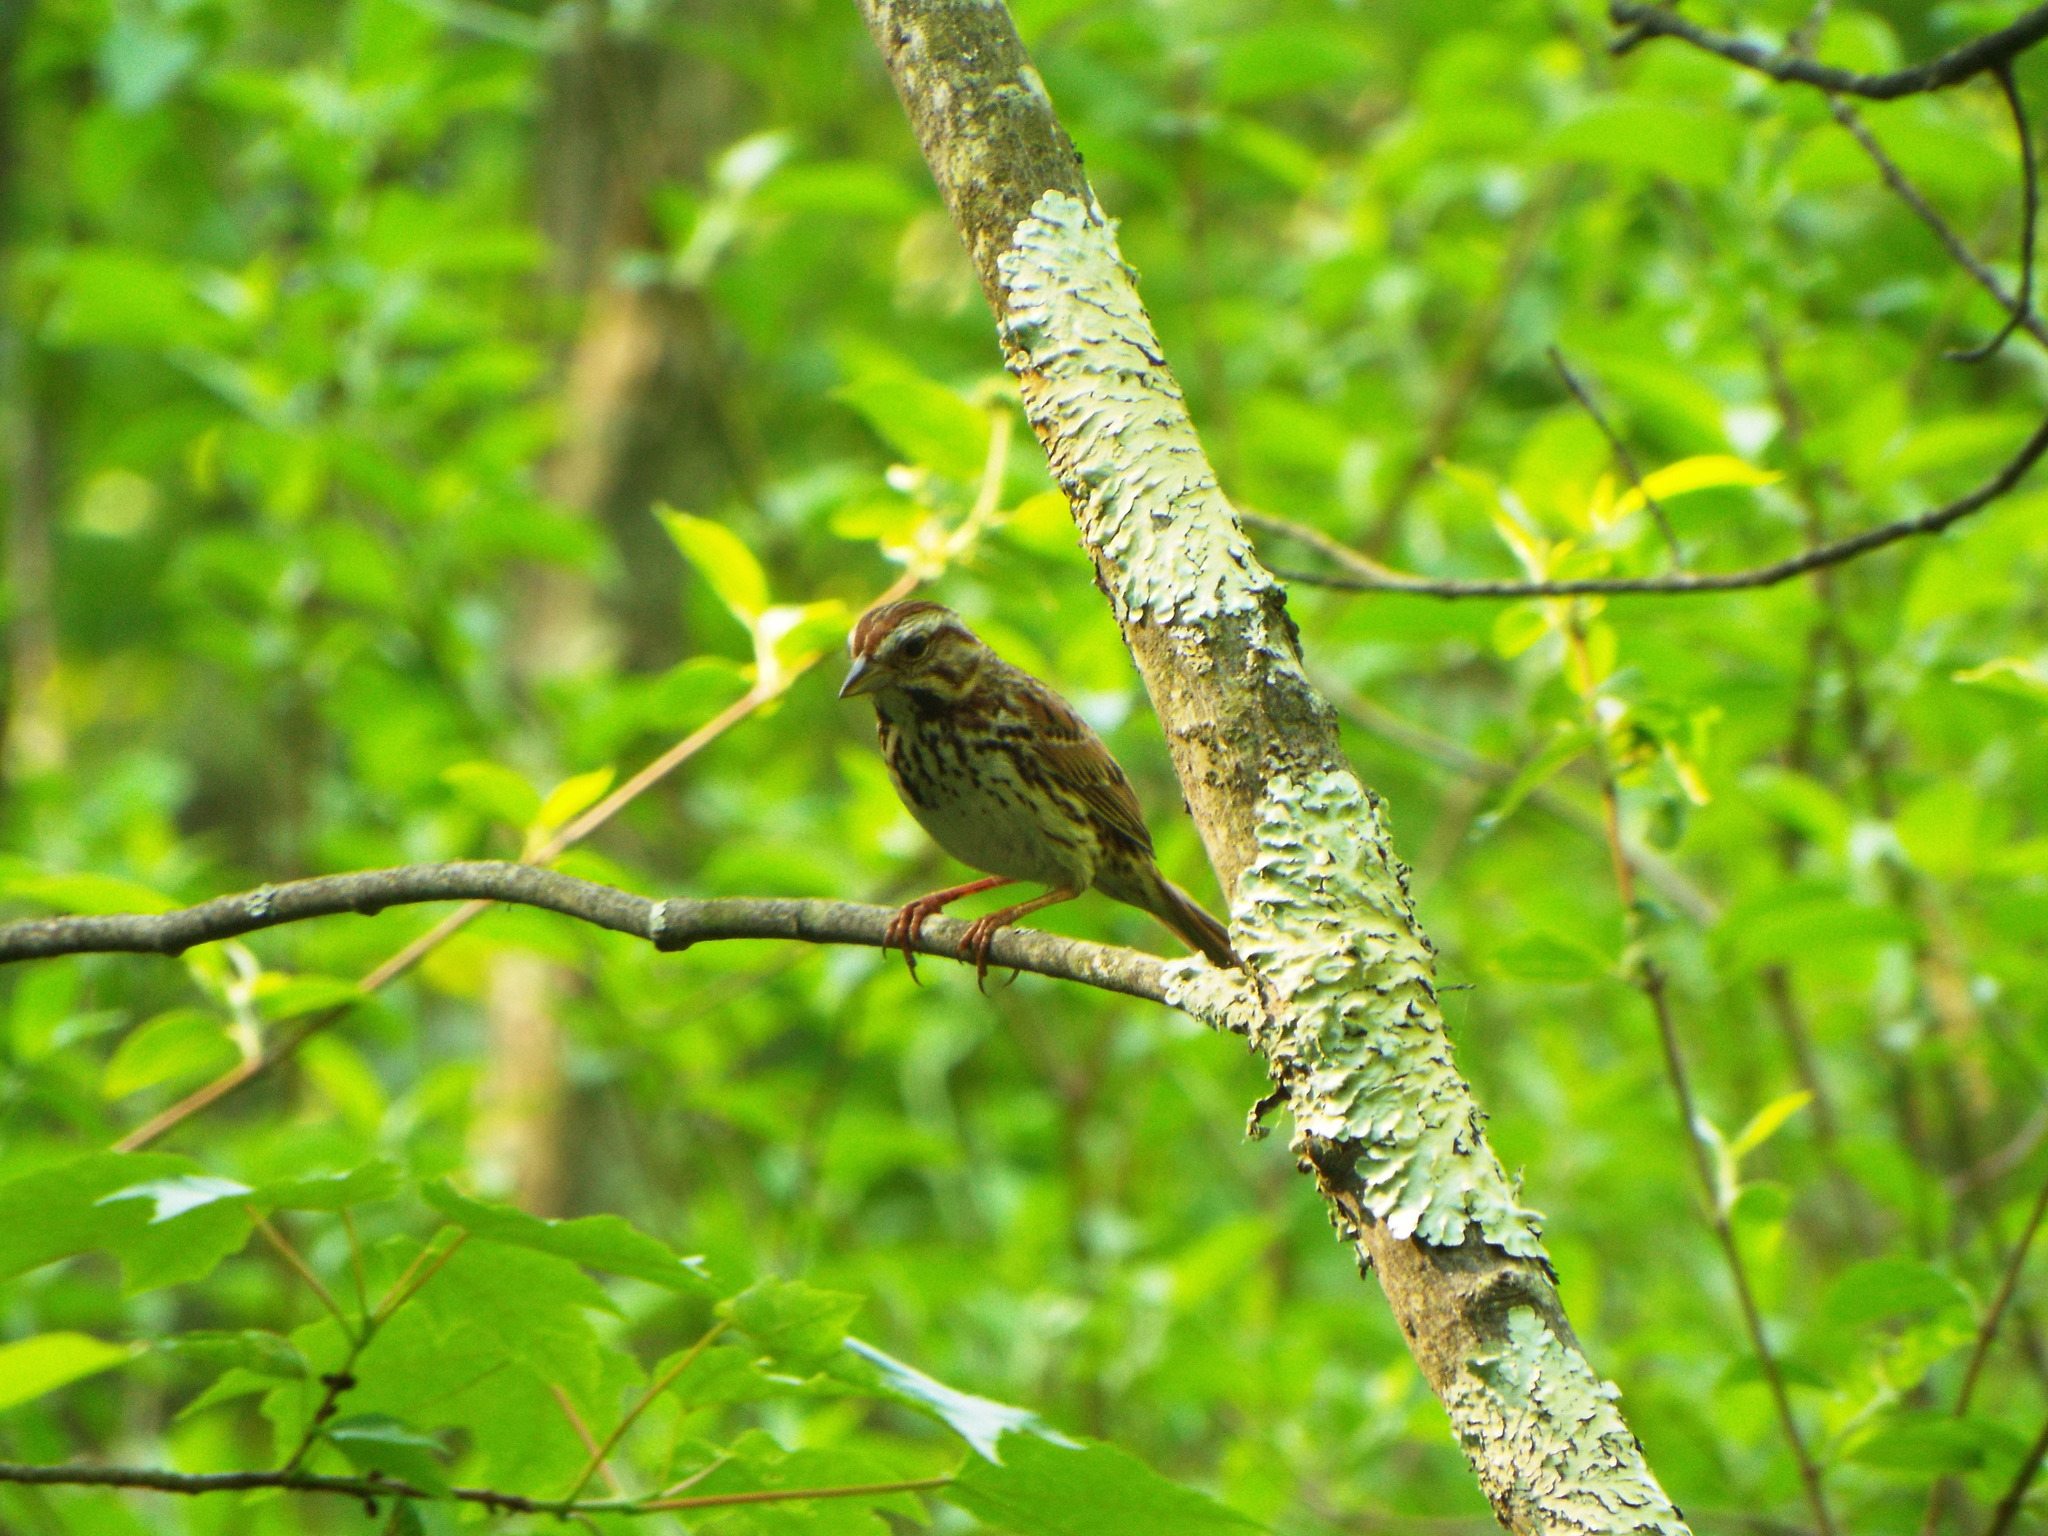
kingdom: Animalia
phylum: Chordata
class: Aves
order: Passeriformes
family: Passerellidae
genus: Melospiza
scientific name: Melospiza melodia
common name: Song sparrow
